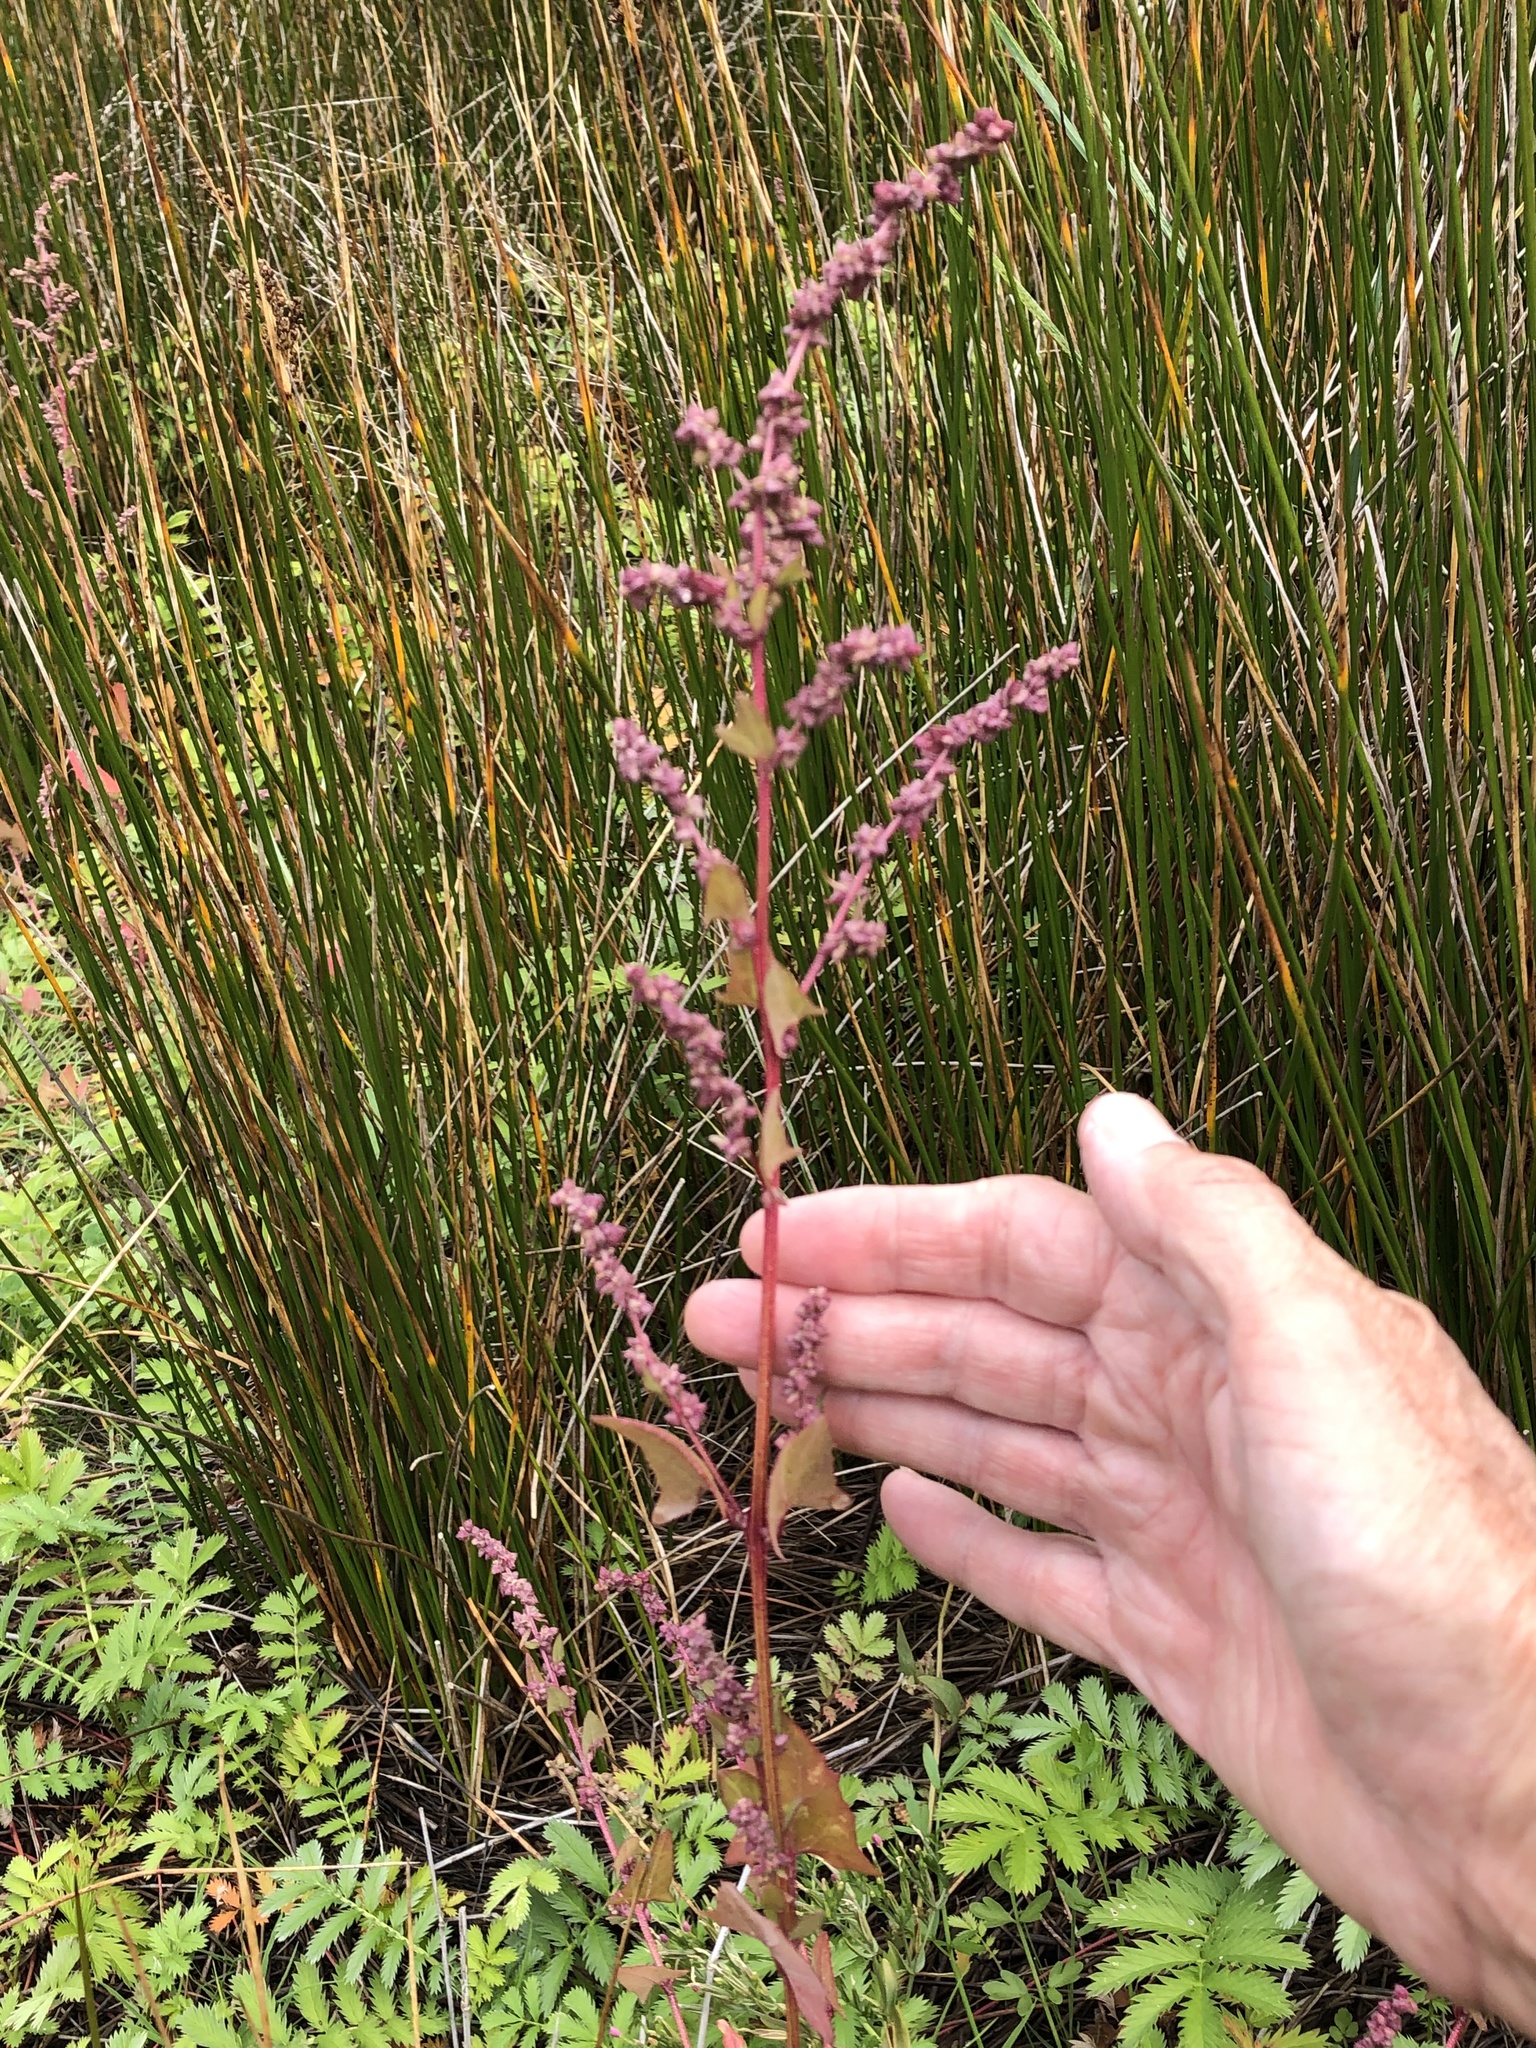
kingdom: Plantae
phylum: Tracheophyta
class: Magnoliopsida
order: Caryophyllales
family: Amaranthaceae
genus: Atriplex
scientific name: Atriplex prostrata
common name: Spear-leaved orache
